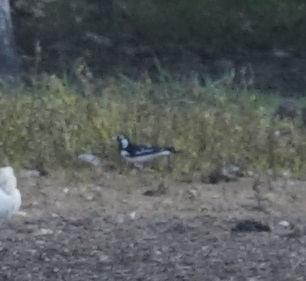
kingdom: Animalia
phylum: Chordata
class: Aves
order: Passeriformes
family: Monarchidae
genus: Grallina
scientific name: Grallina cyanoleuca
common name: Magpie-lark
